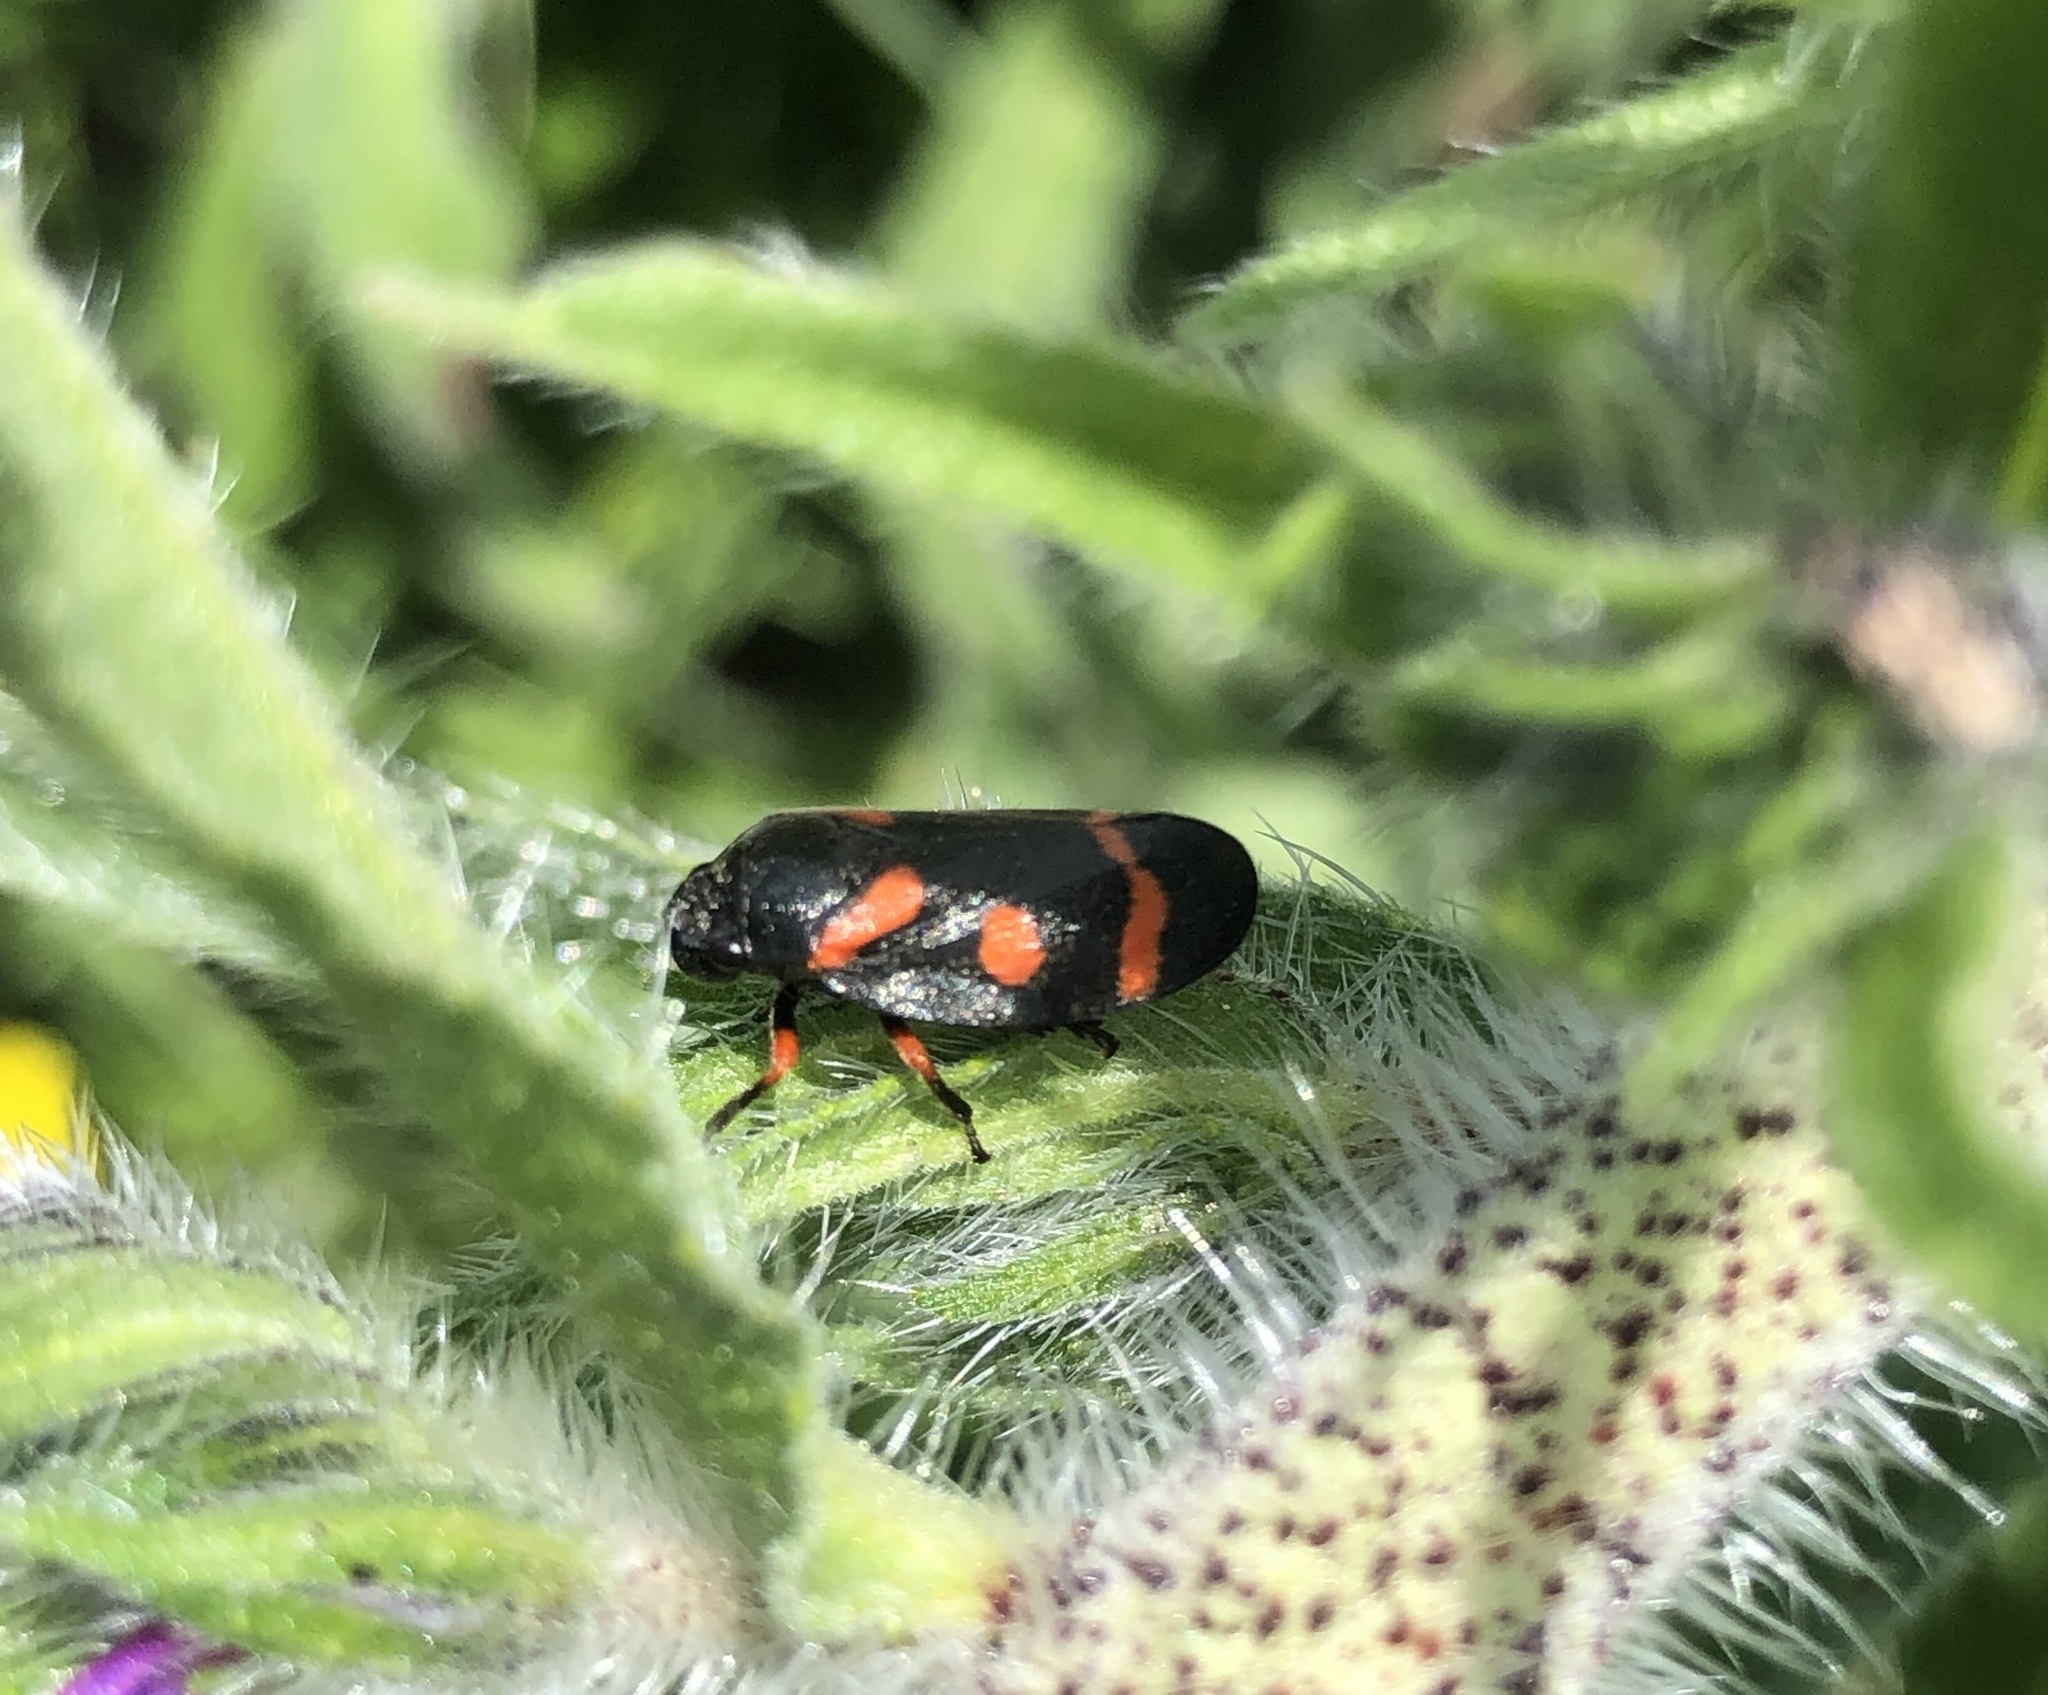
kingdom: Animalia
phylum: Arthropoda
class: Insecta
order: Hemiptera
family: Cercopidae
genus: Cercopis
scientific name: Cercopis intermedia
